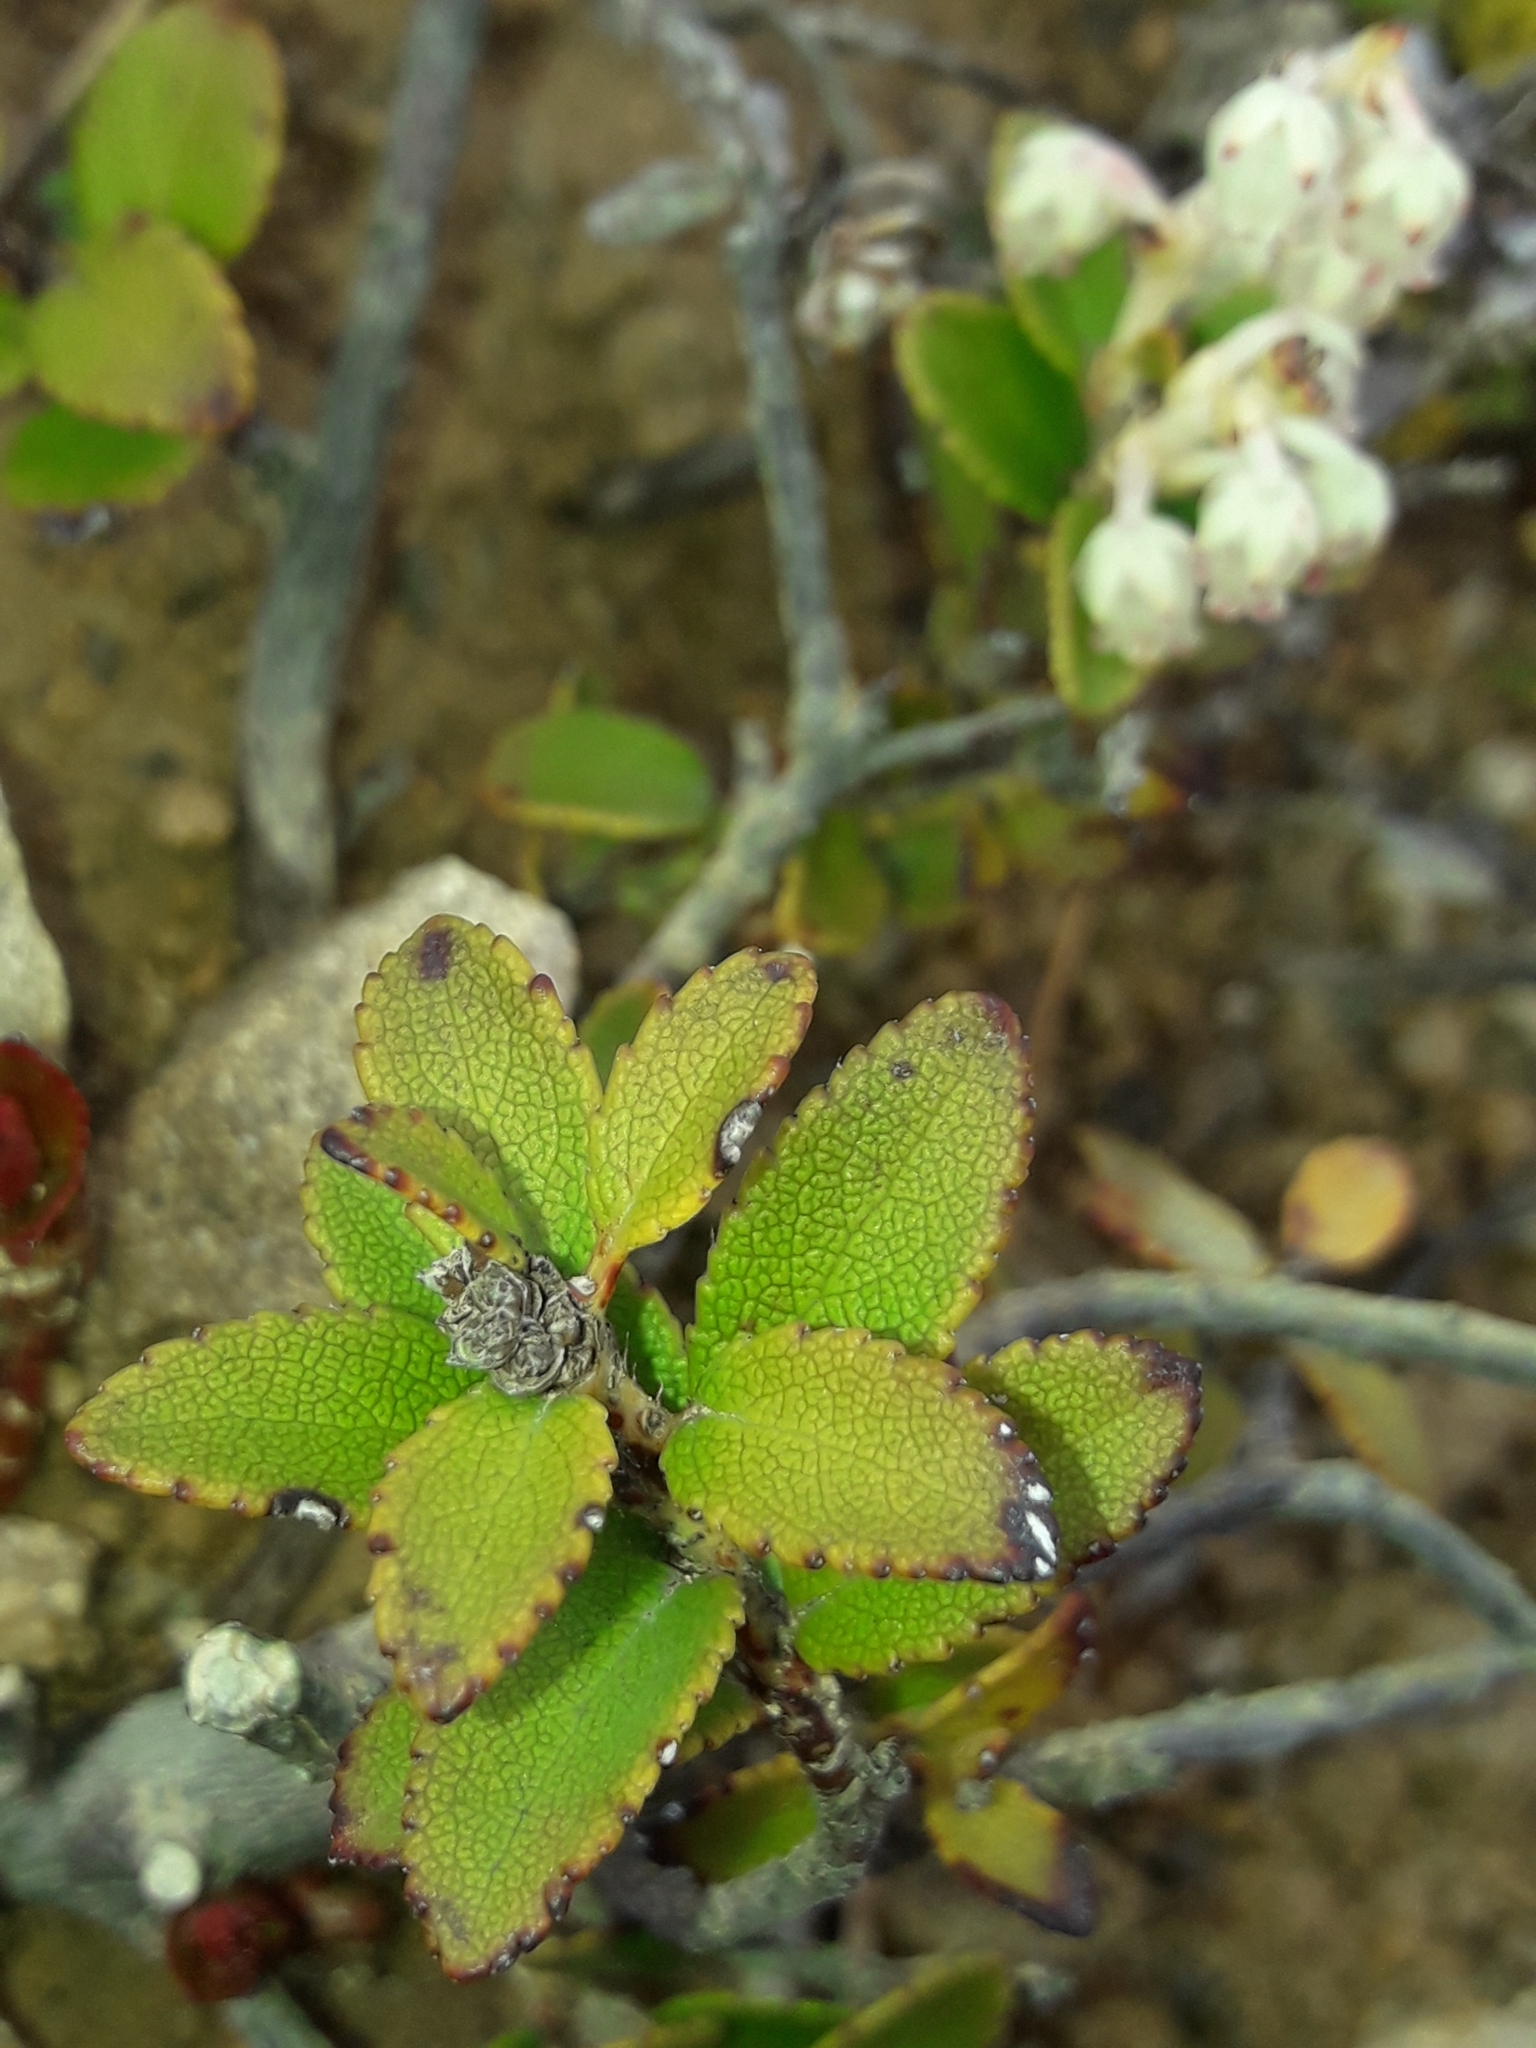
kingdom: Plantae
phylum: Tracheophyta
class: Magnoliopsida
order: Ericales
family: Ericaceae
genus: Gaultheria
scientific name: Gaultheria crassa
